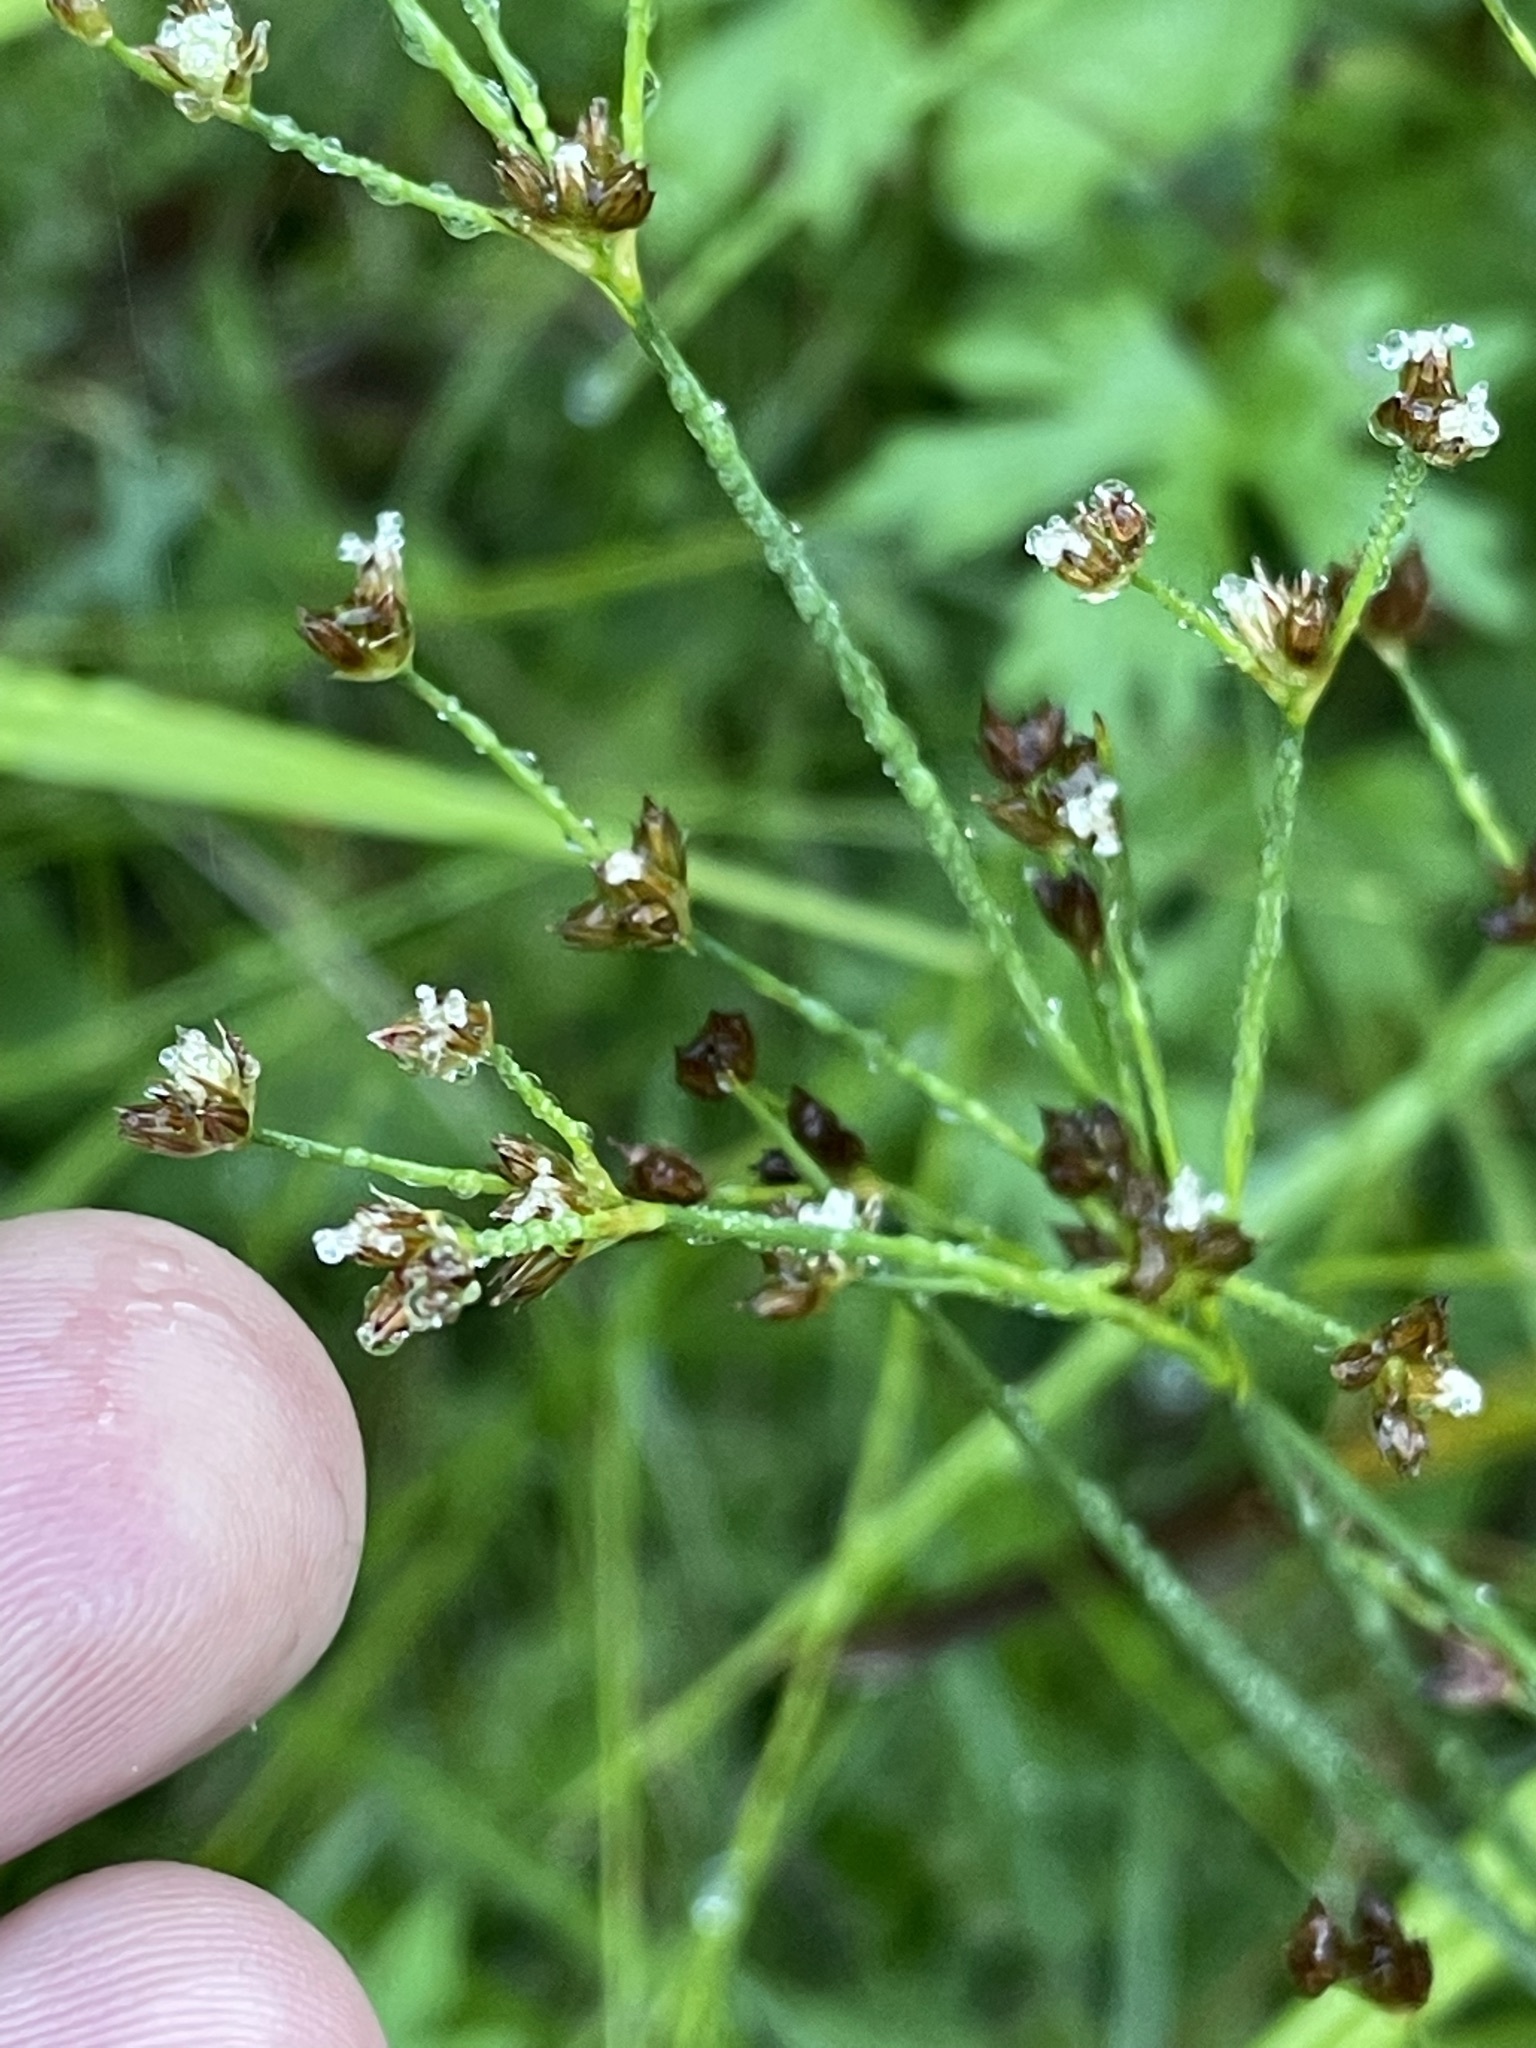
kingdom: Plantae
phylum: Tracheophyta
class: Liliopsida
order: Poales
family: Juncaceae
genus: Juncus
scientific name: Juncus articulatus
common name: Jointed rush
